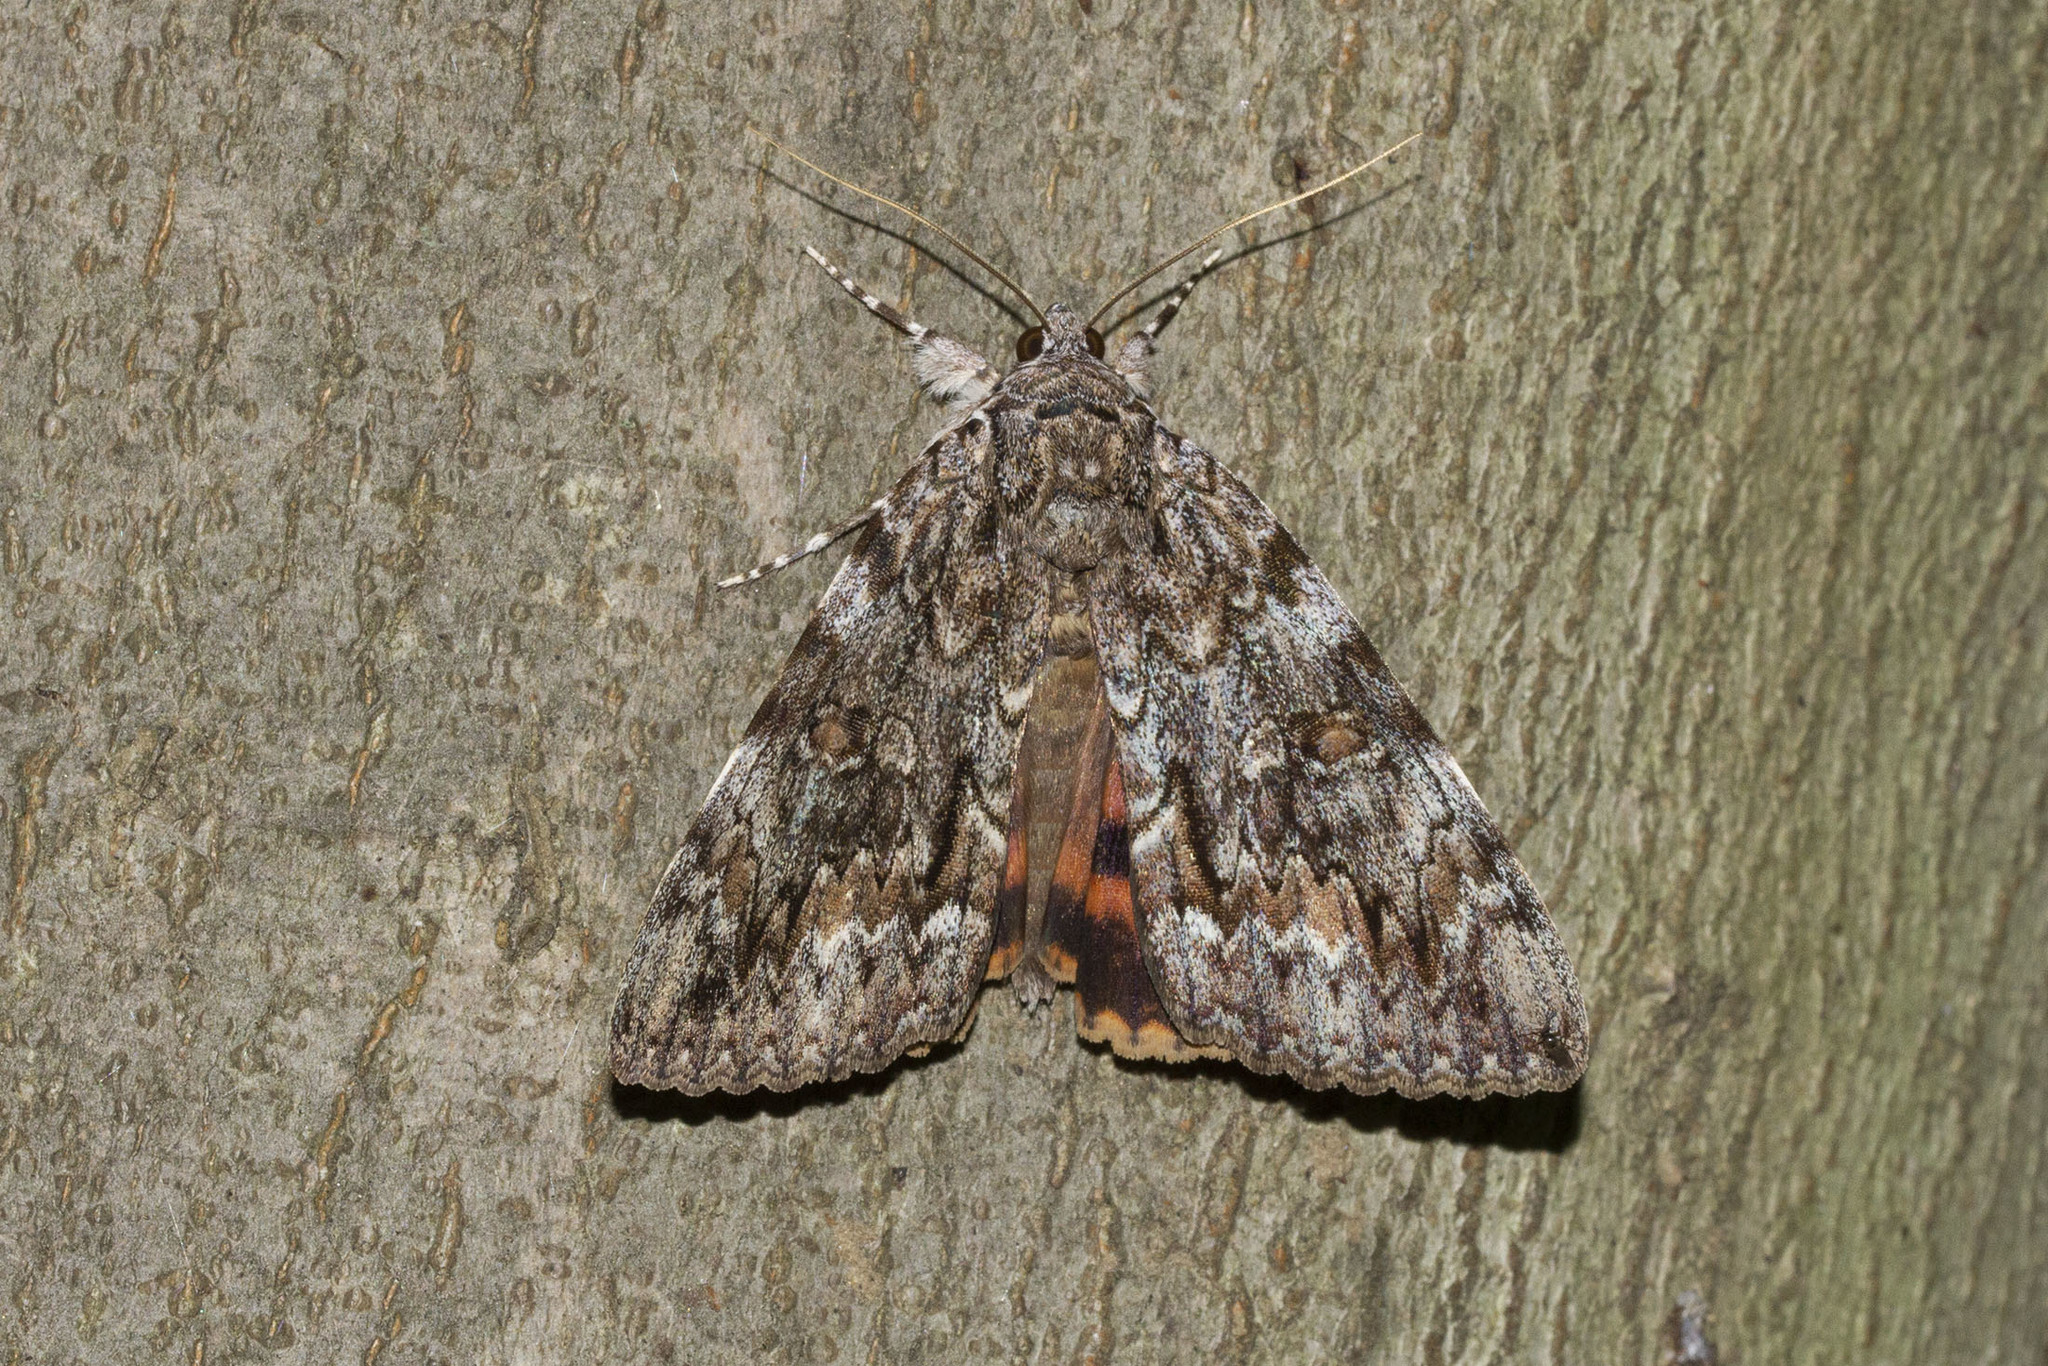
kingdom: Animalia
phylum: Arthropoda
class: Insecta
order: Lepidoptera
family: Erebidae
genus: Catocala
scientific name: Catocala palaeogama
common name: Oldwife underwing
